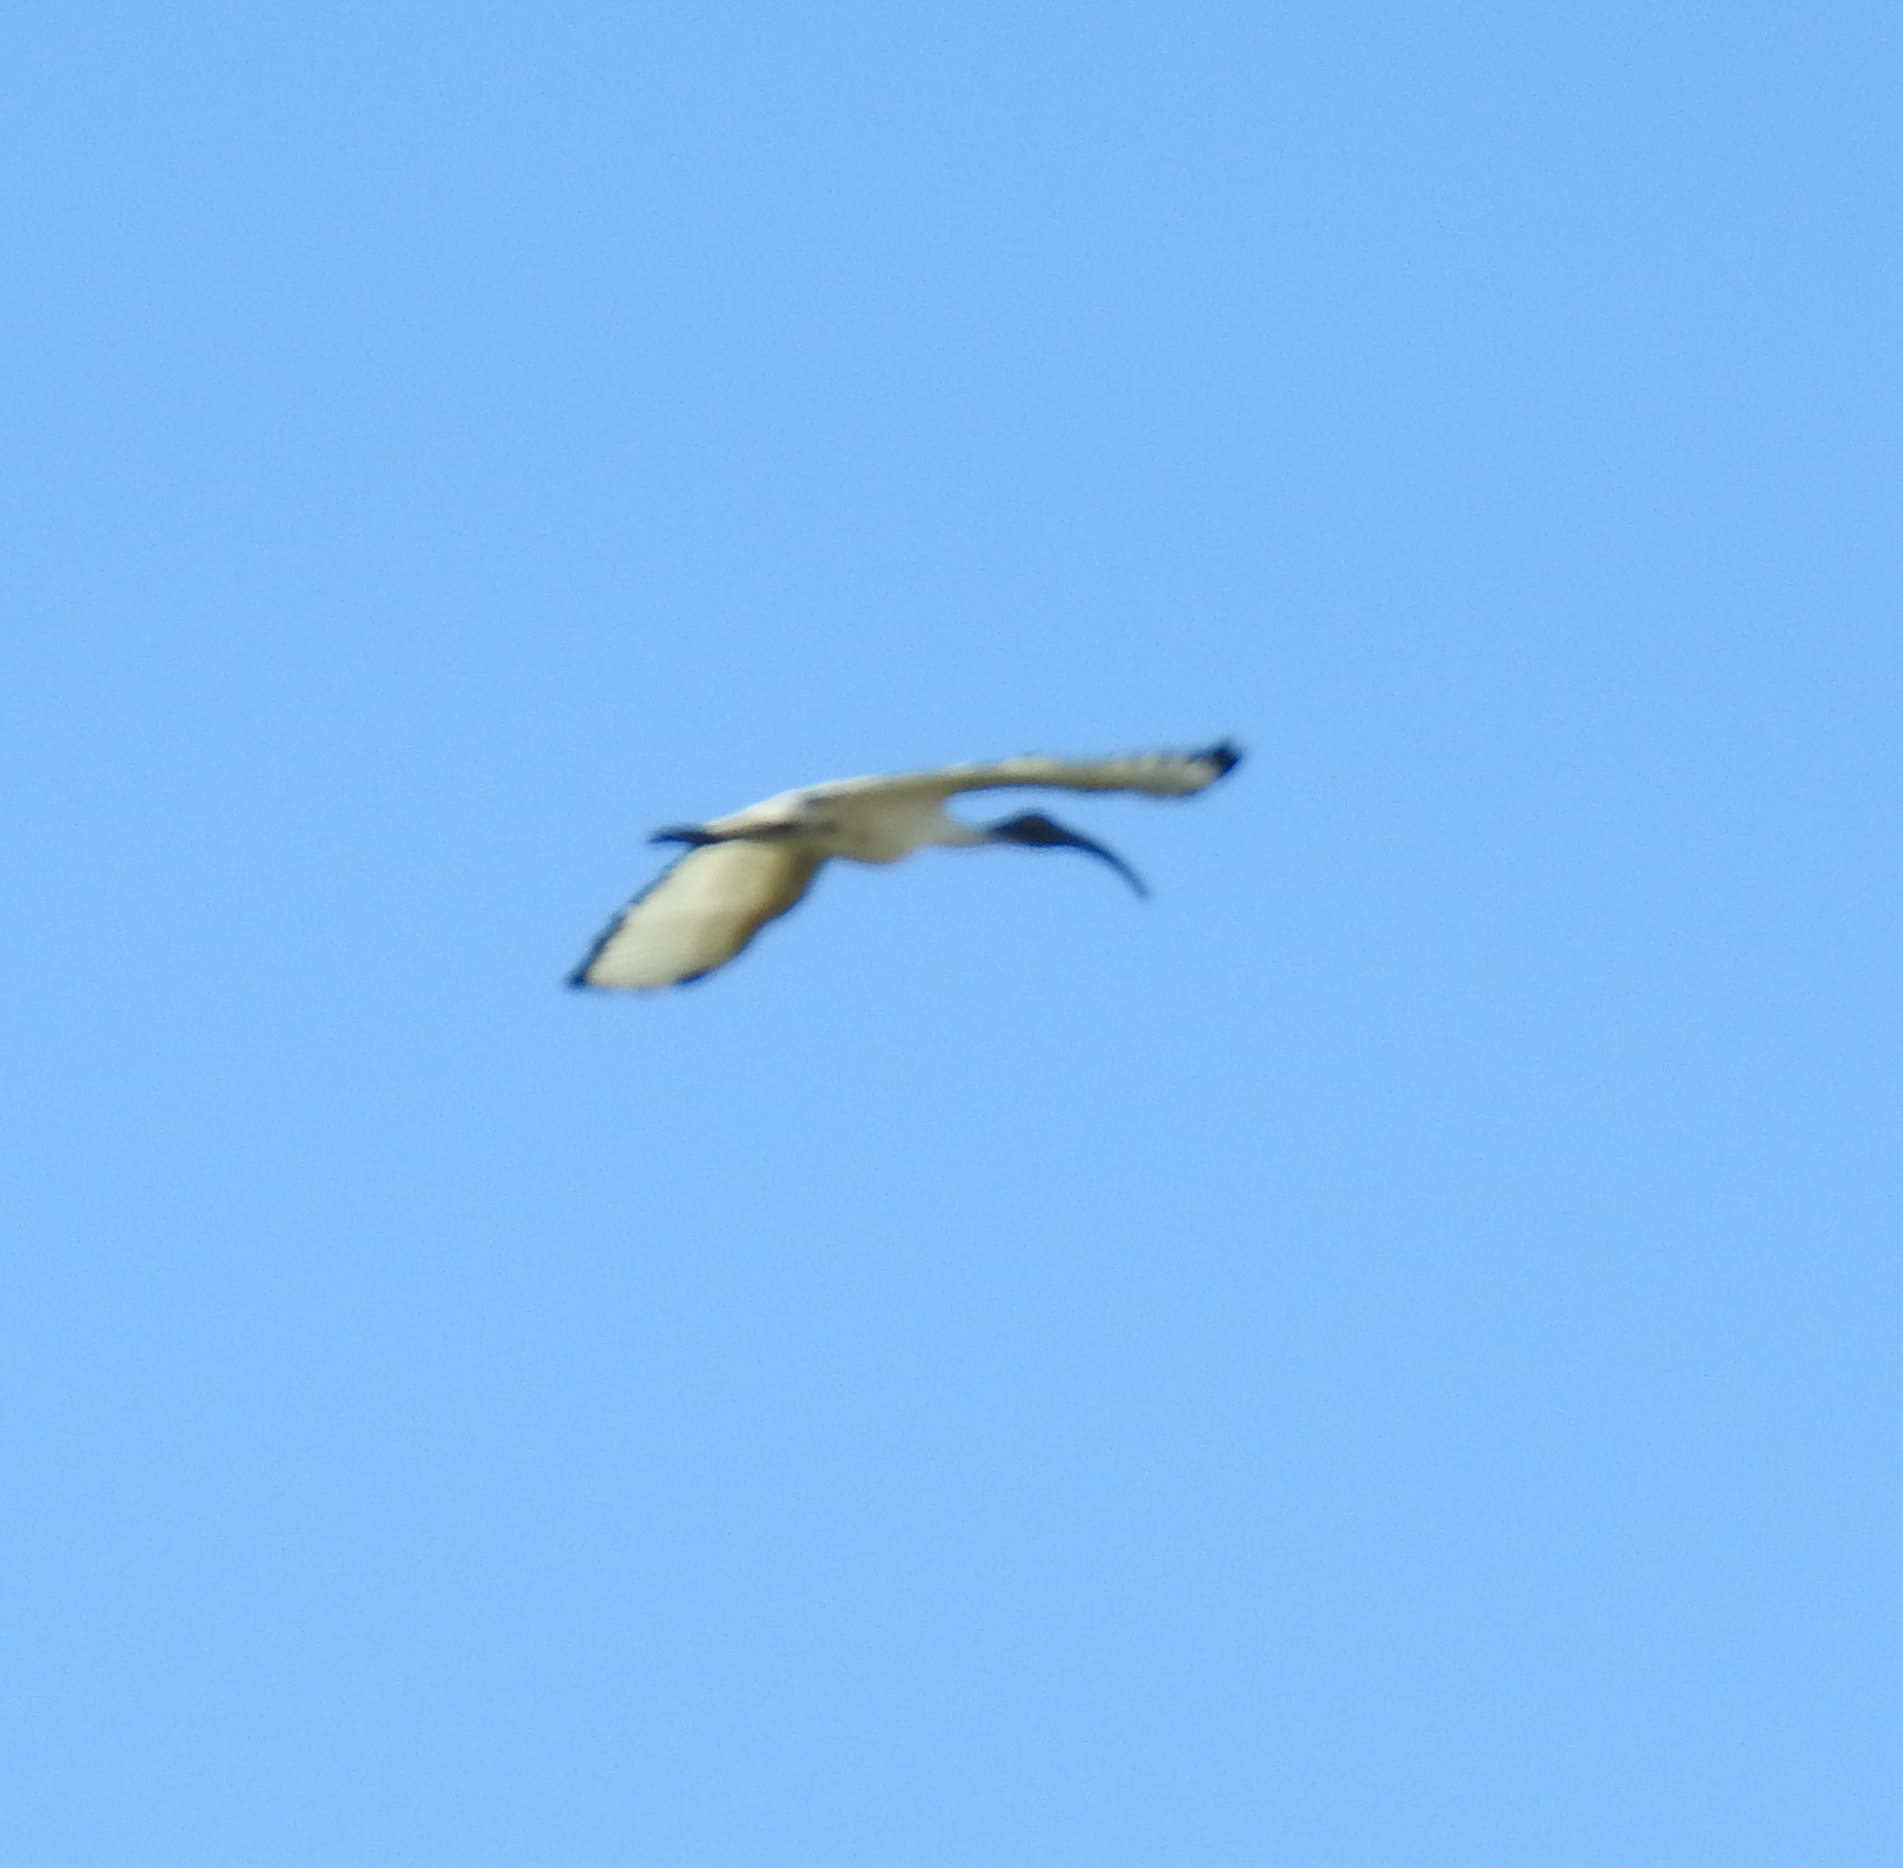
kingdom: Animalia
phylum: Chordata
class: Aves
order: Pelecaniformes
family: Threskiornithidae
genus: Threskiornis
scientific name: Threskiornis aethiopicus
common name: Sacred ibis
